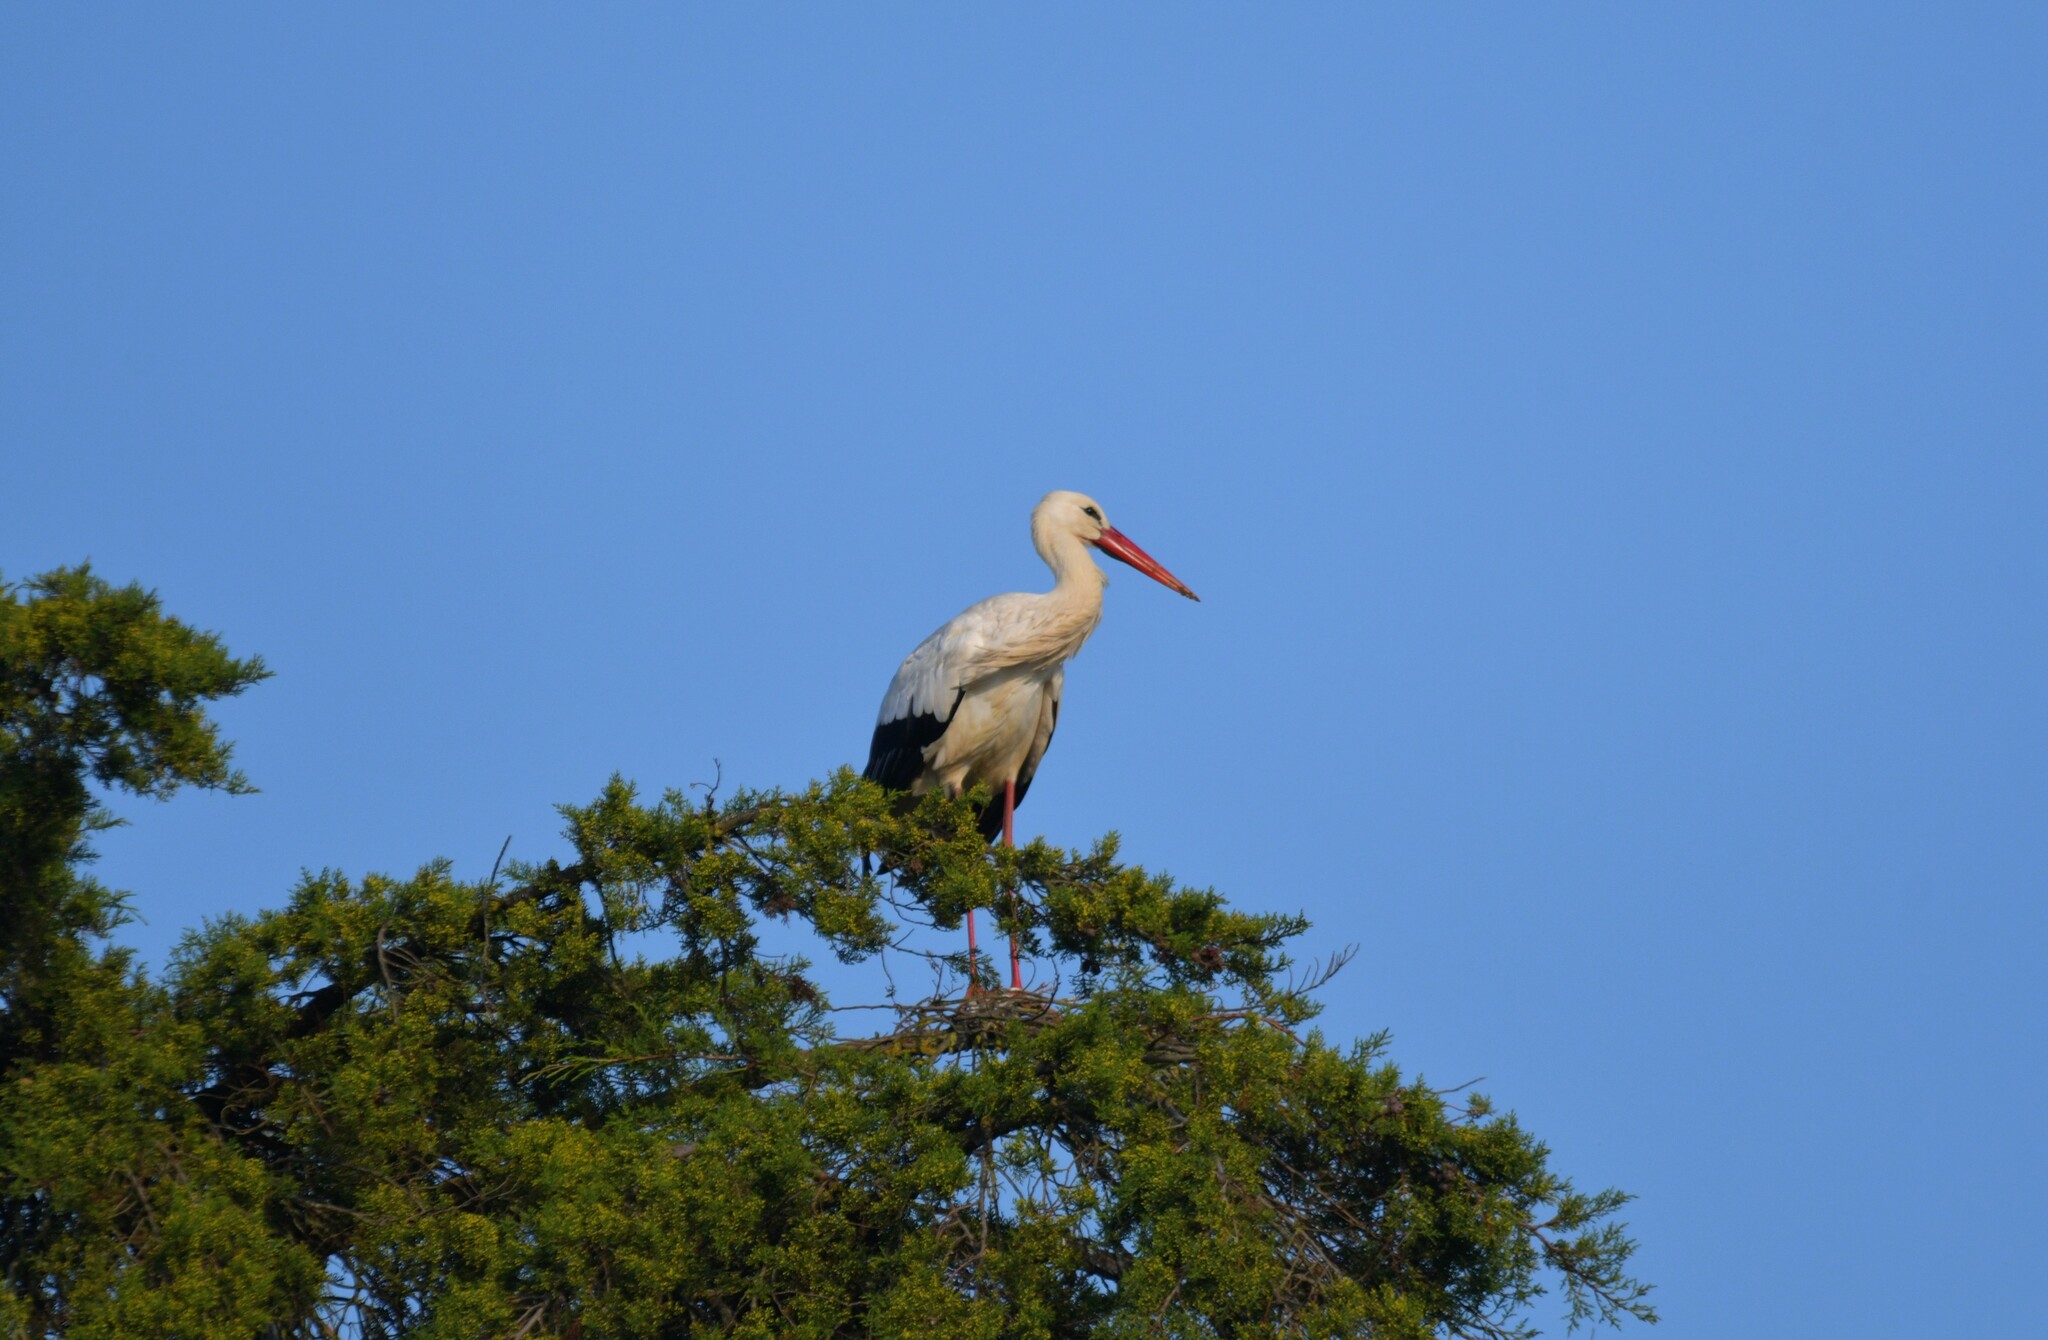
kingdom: Animalia
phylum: Chordata
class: Aves
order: Ciconiiformes
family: Ciconiidae
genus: Ciconia
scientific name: Ciconia ciconia
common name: White stork
